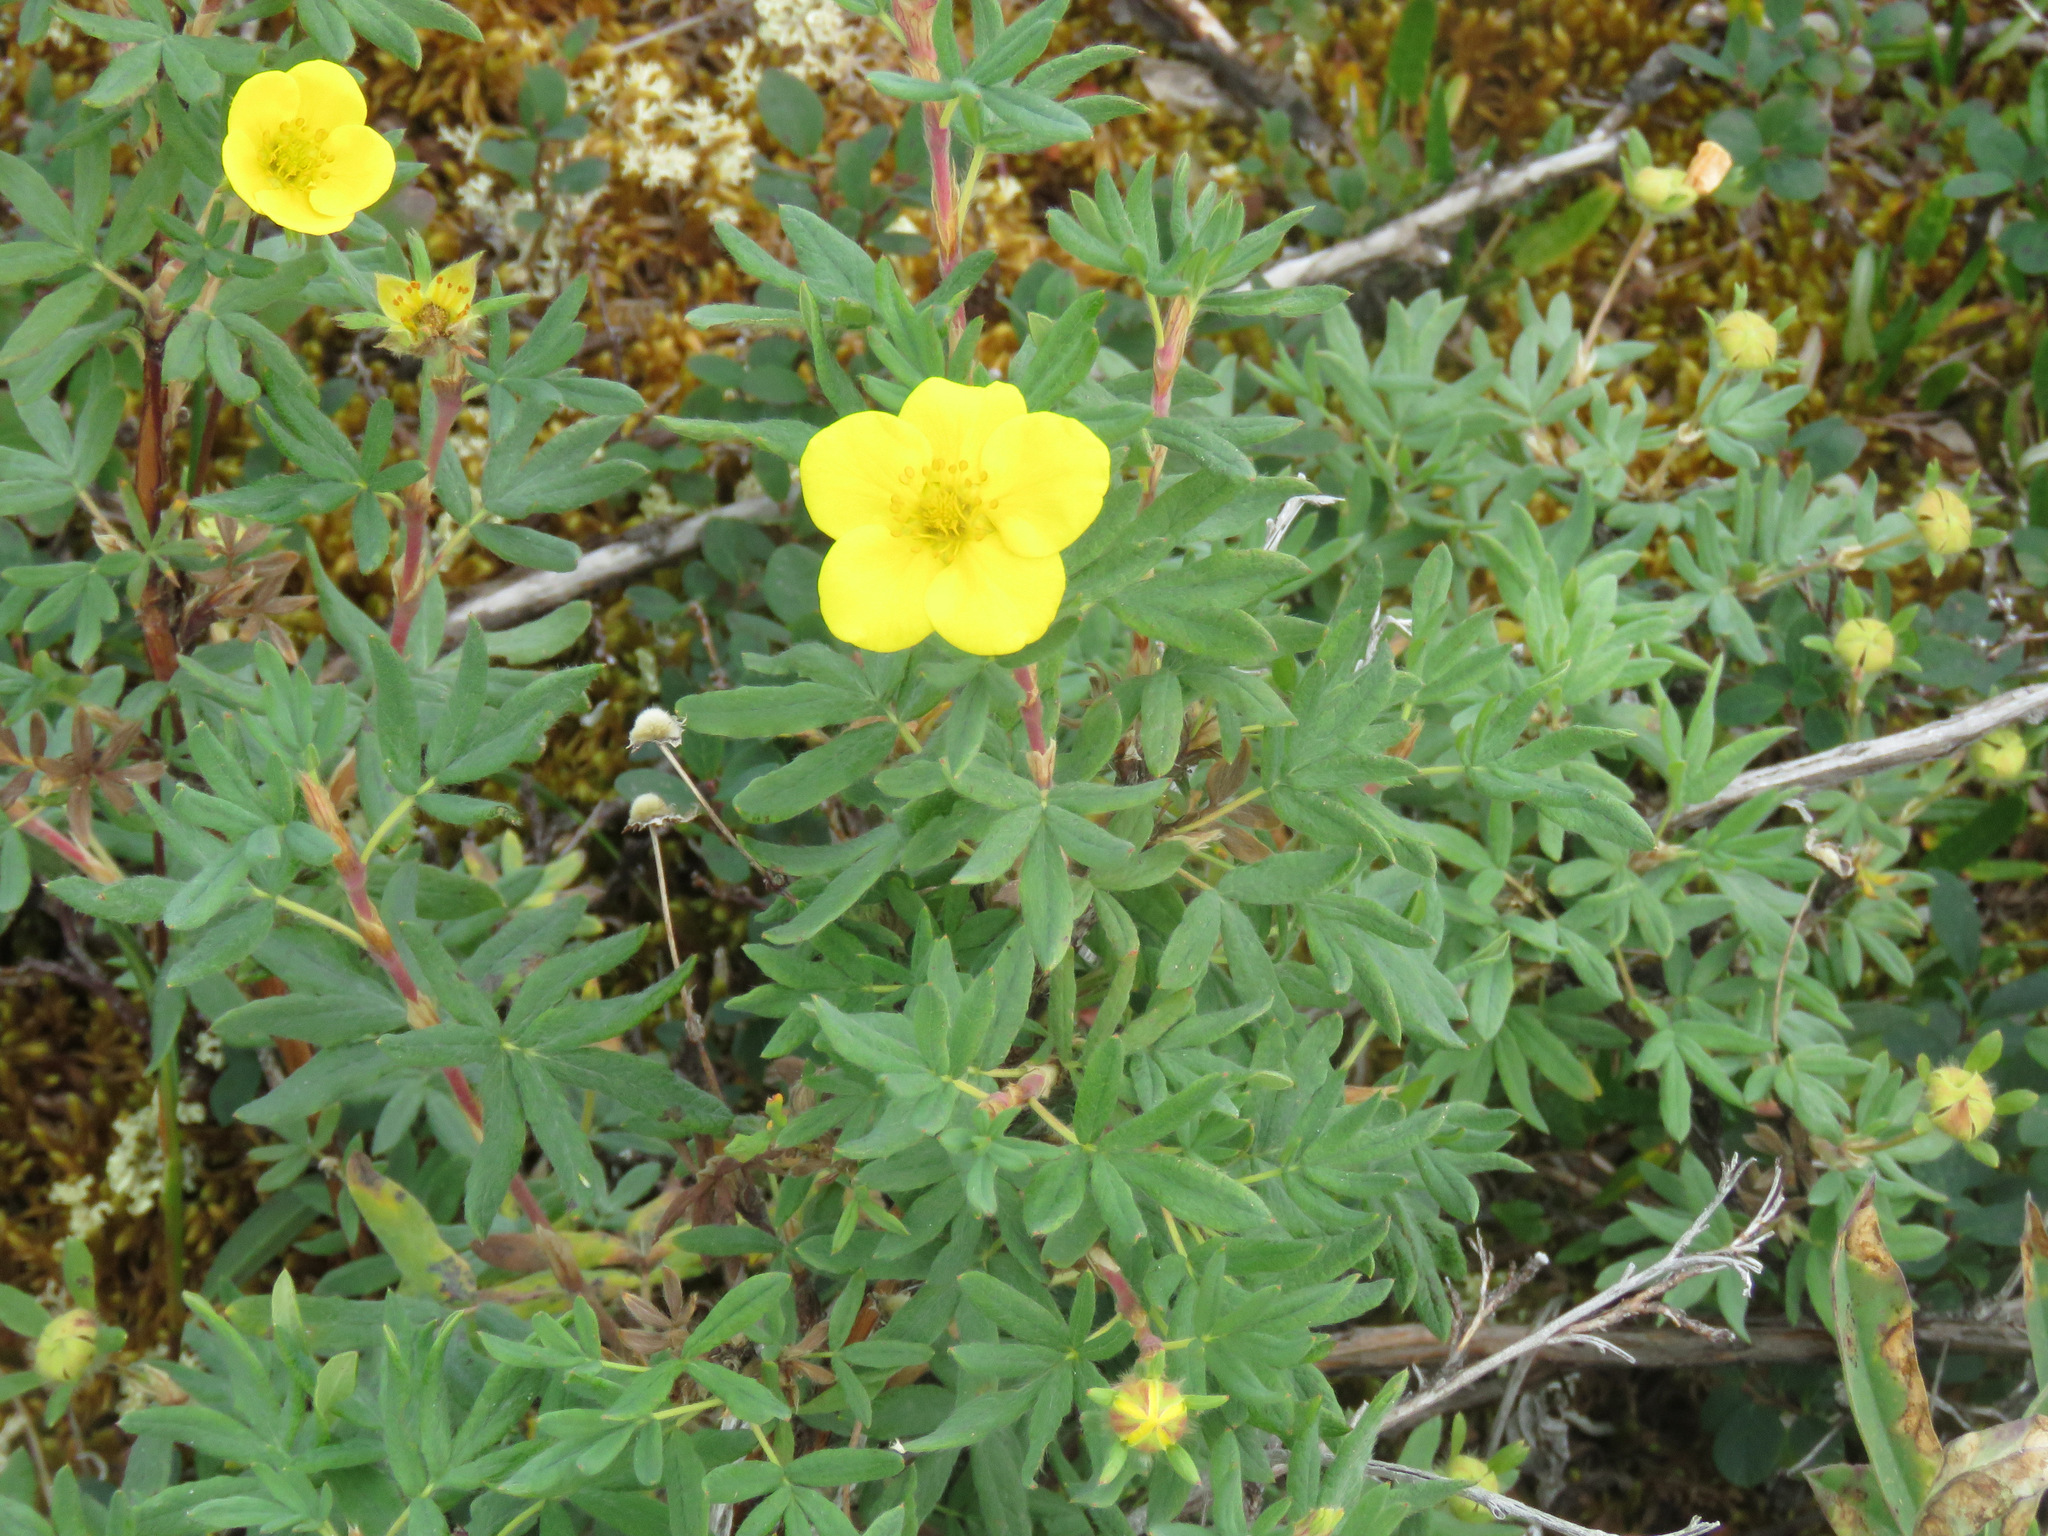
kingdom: Plantae
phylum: Tracheophyta
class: Magnoliopsida
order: Rosales
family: Rosaceae
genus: Dasiphora
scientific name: Dasiphora fruticosa
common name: Shrubby cinquefoil
